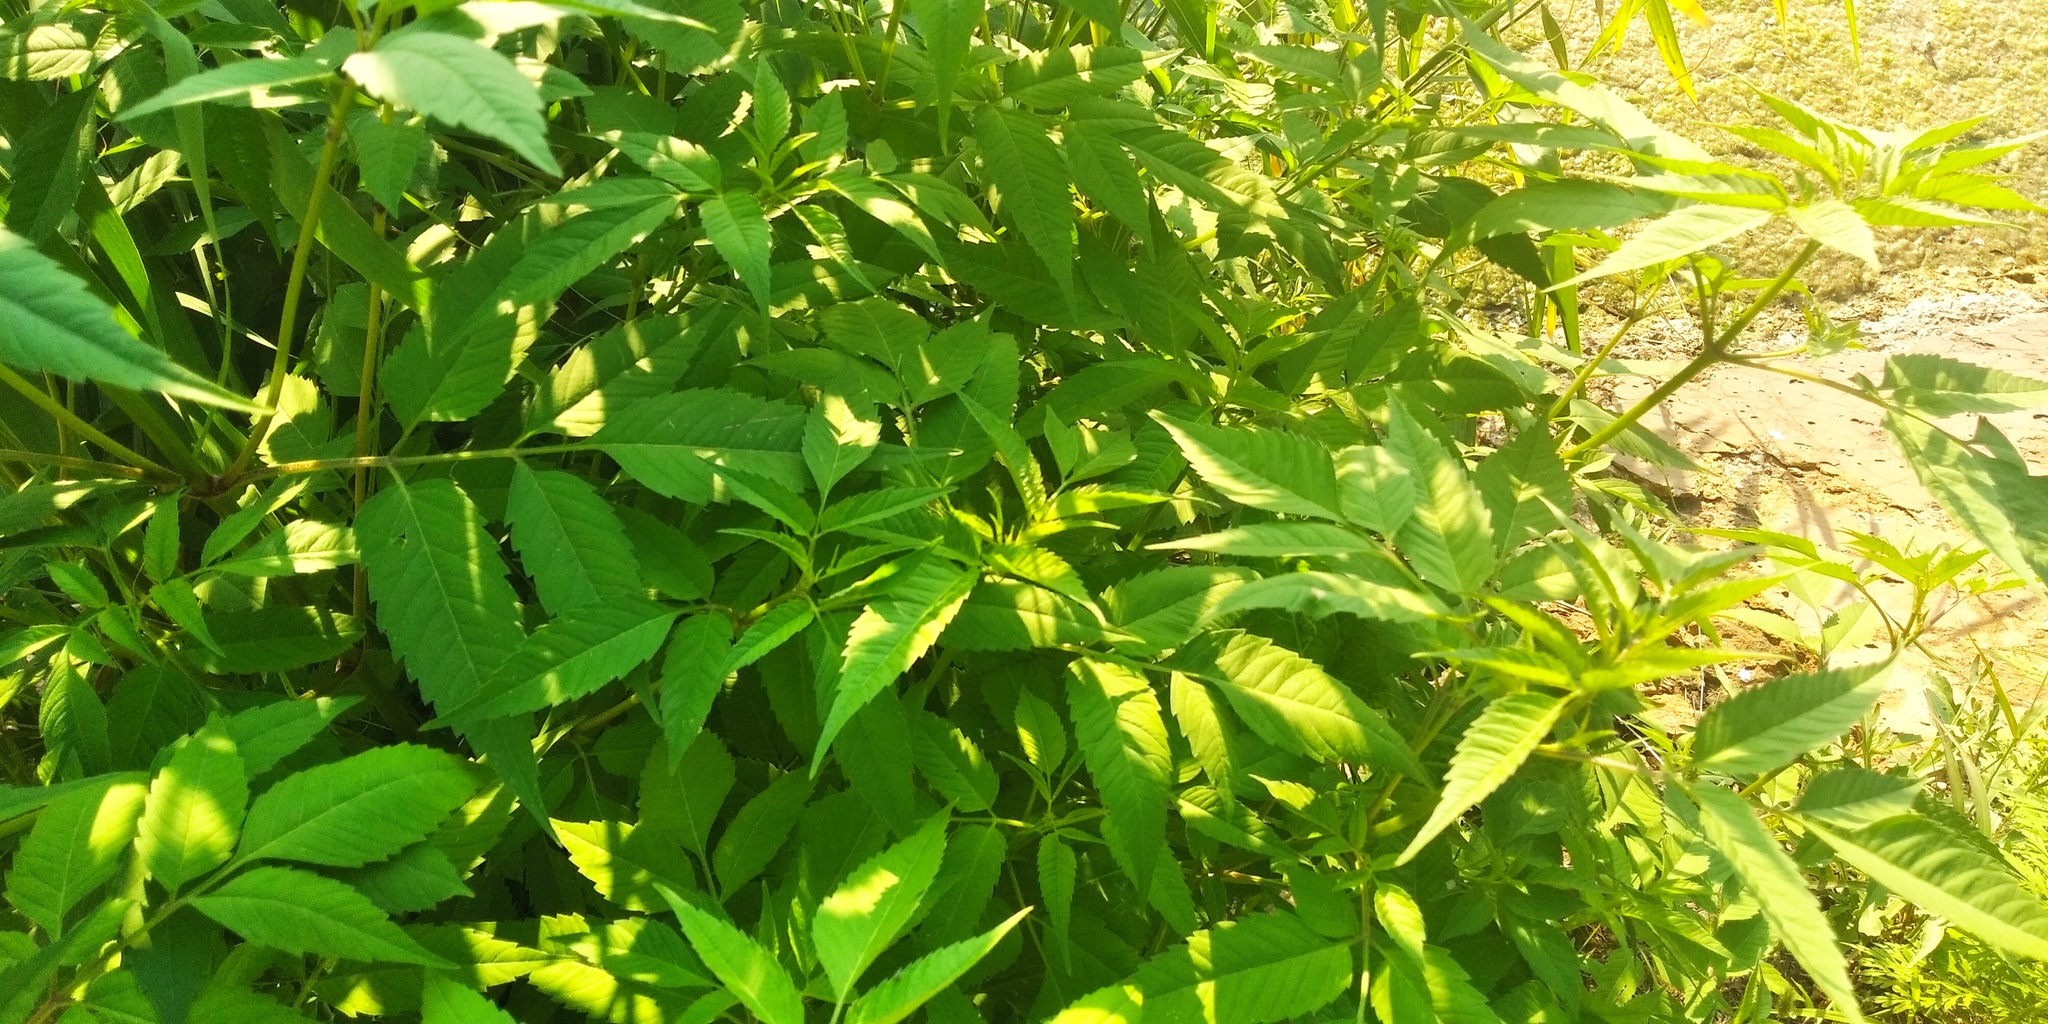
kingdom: Plantae
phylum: Tracheophyta
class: Magnoliopsida
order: Asterales
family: Asteraceae
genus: Bidens
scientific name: Bidens frondosa
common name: Beggarticks
